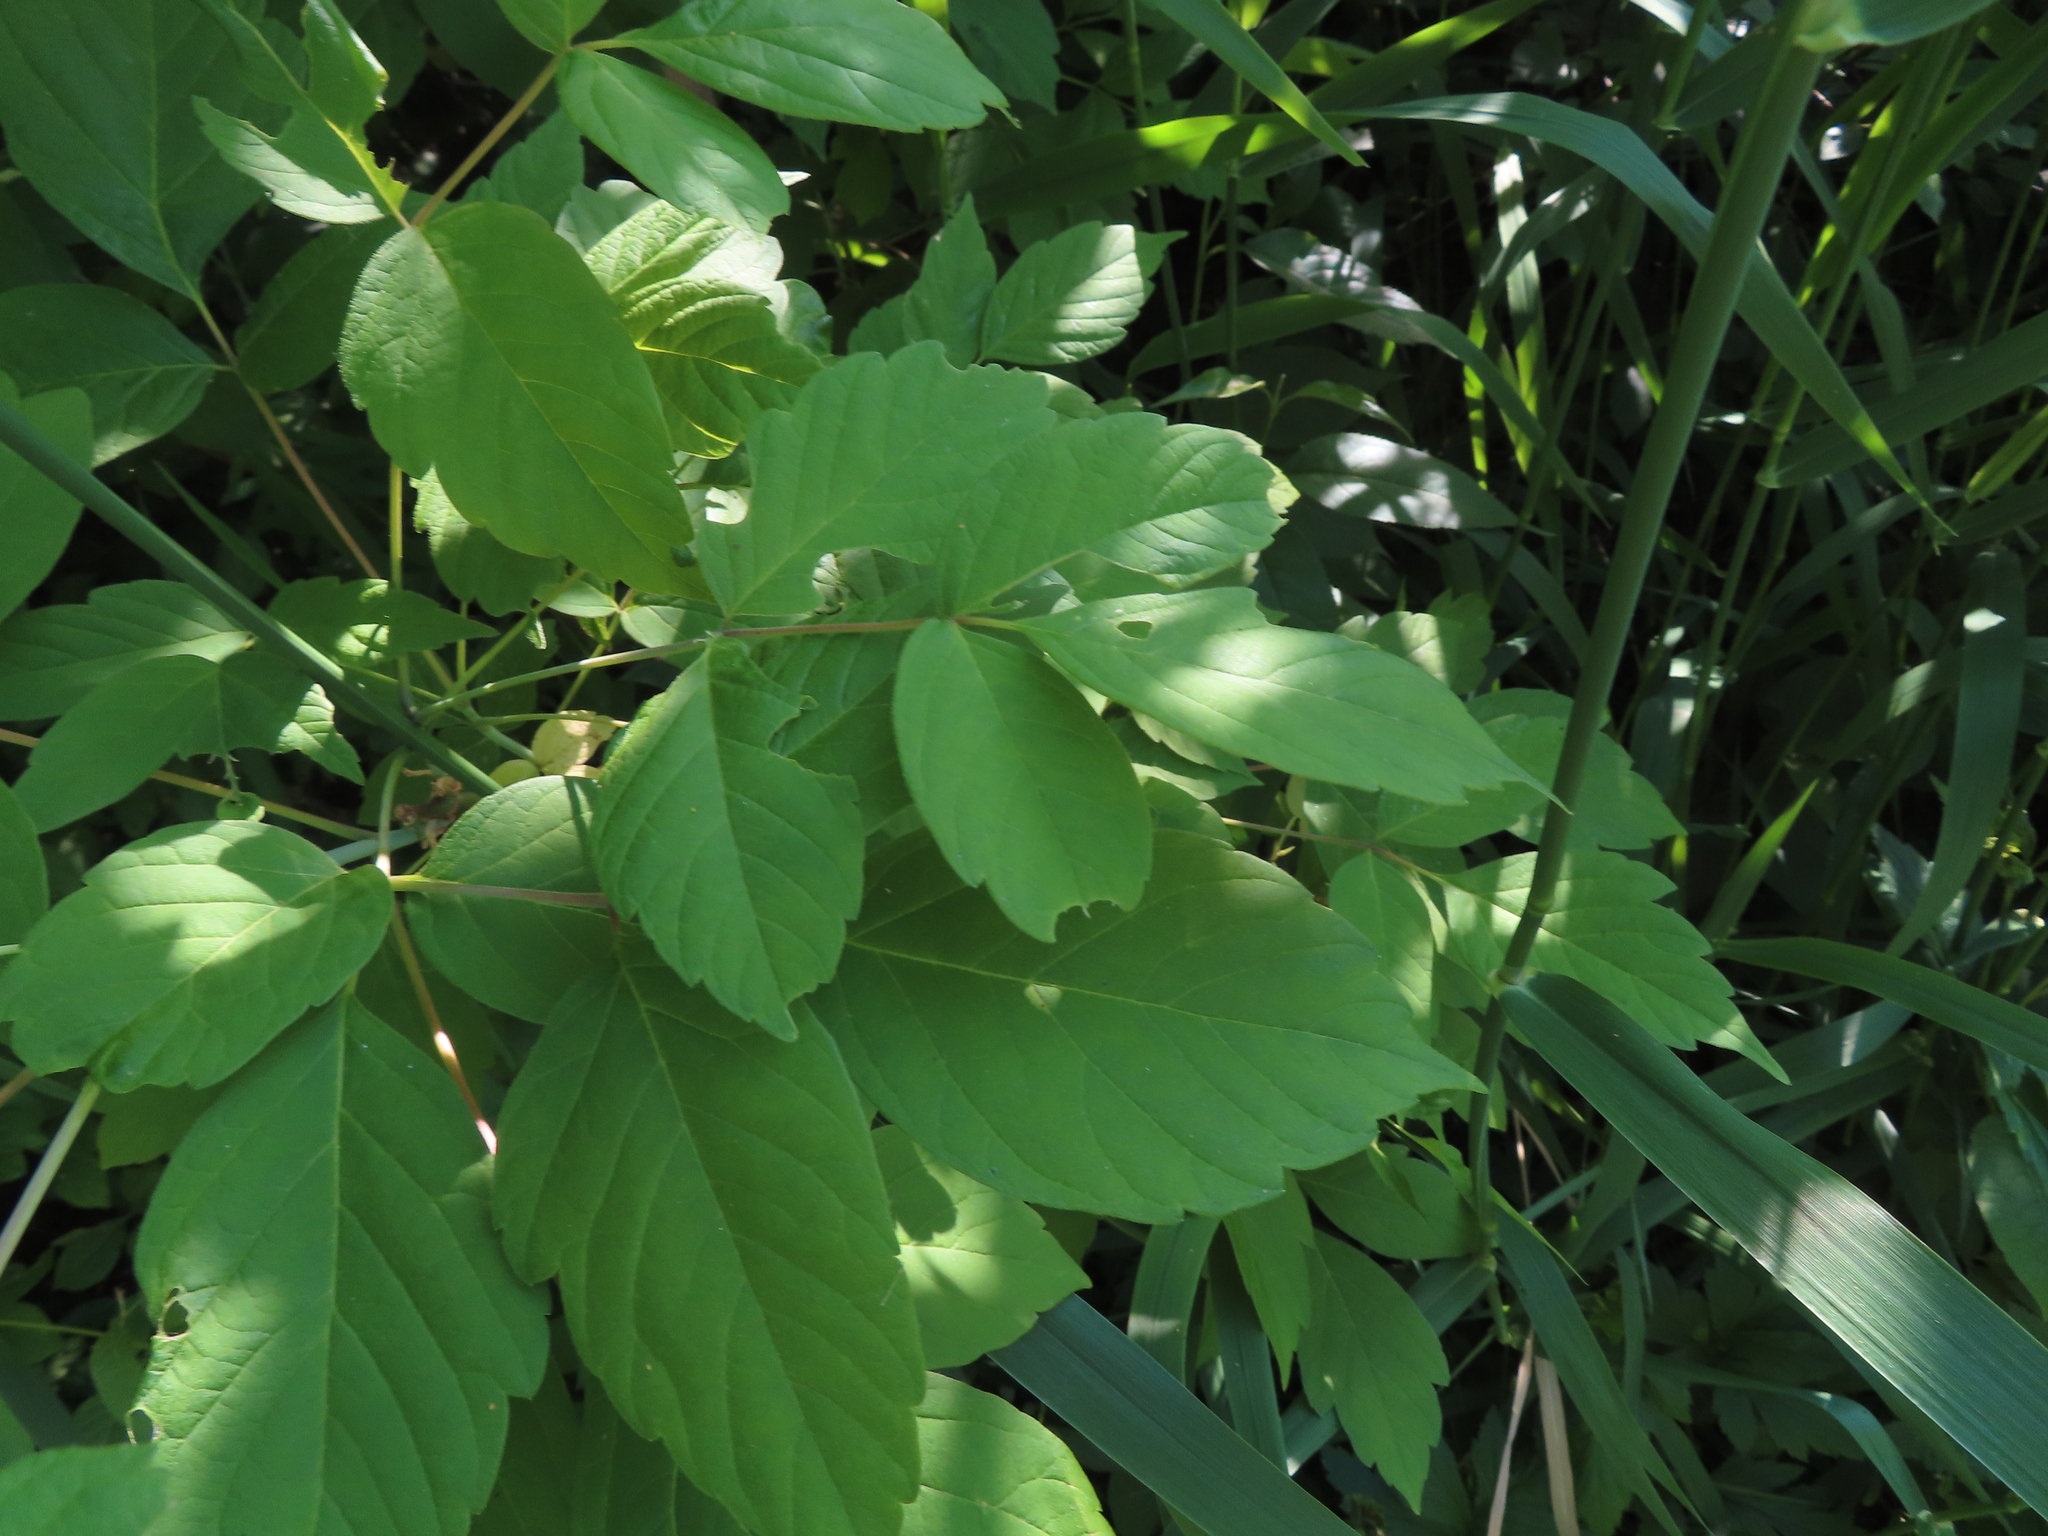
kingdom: Plantae
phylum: Tracheophyta
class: Magnoliopsida
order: Sapindales
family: Sapindaceae
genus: Acer
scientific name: Acer negundo
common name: Ashleaf maple
